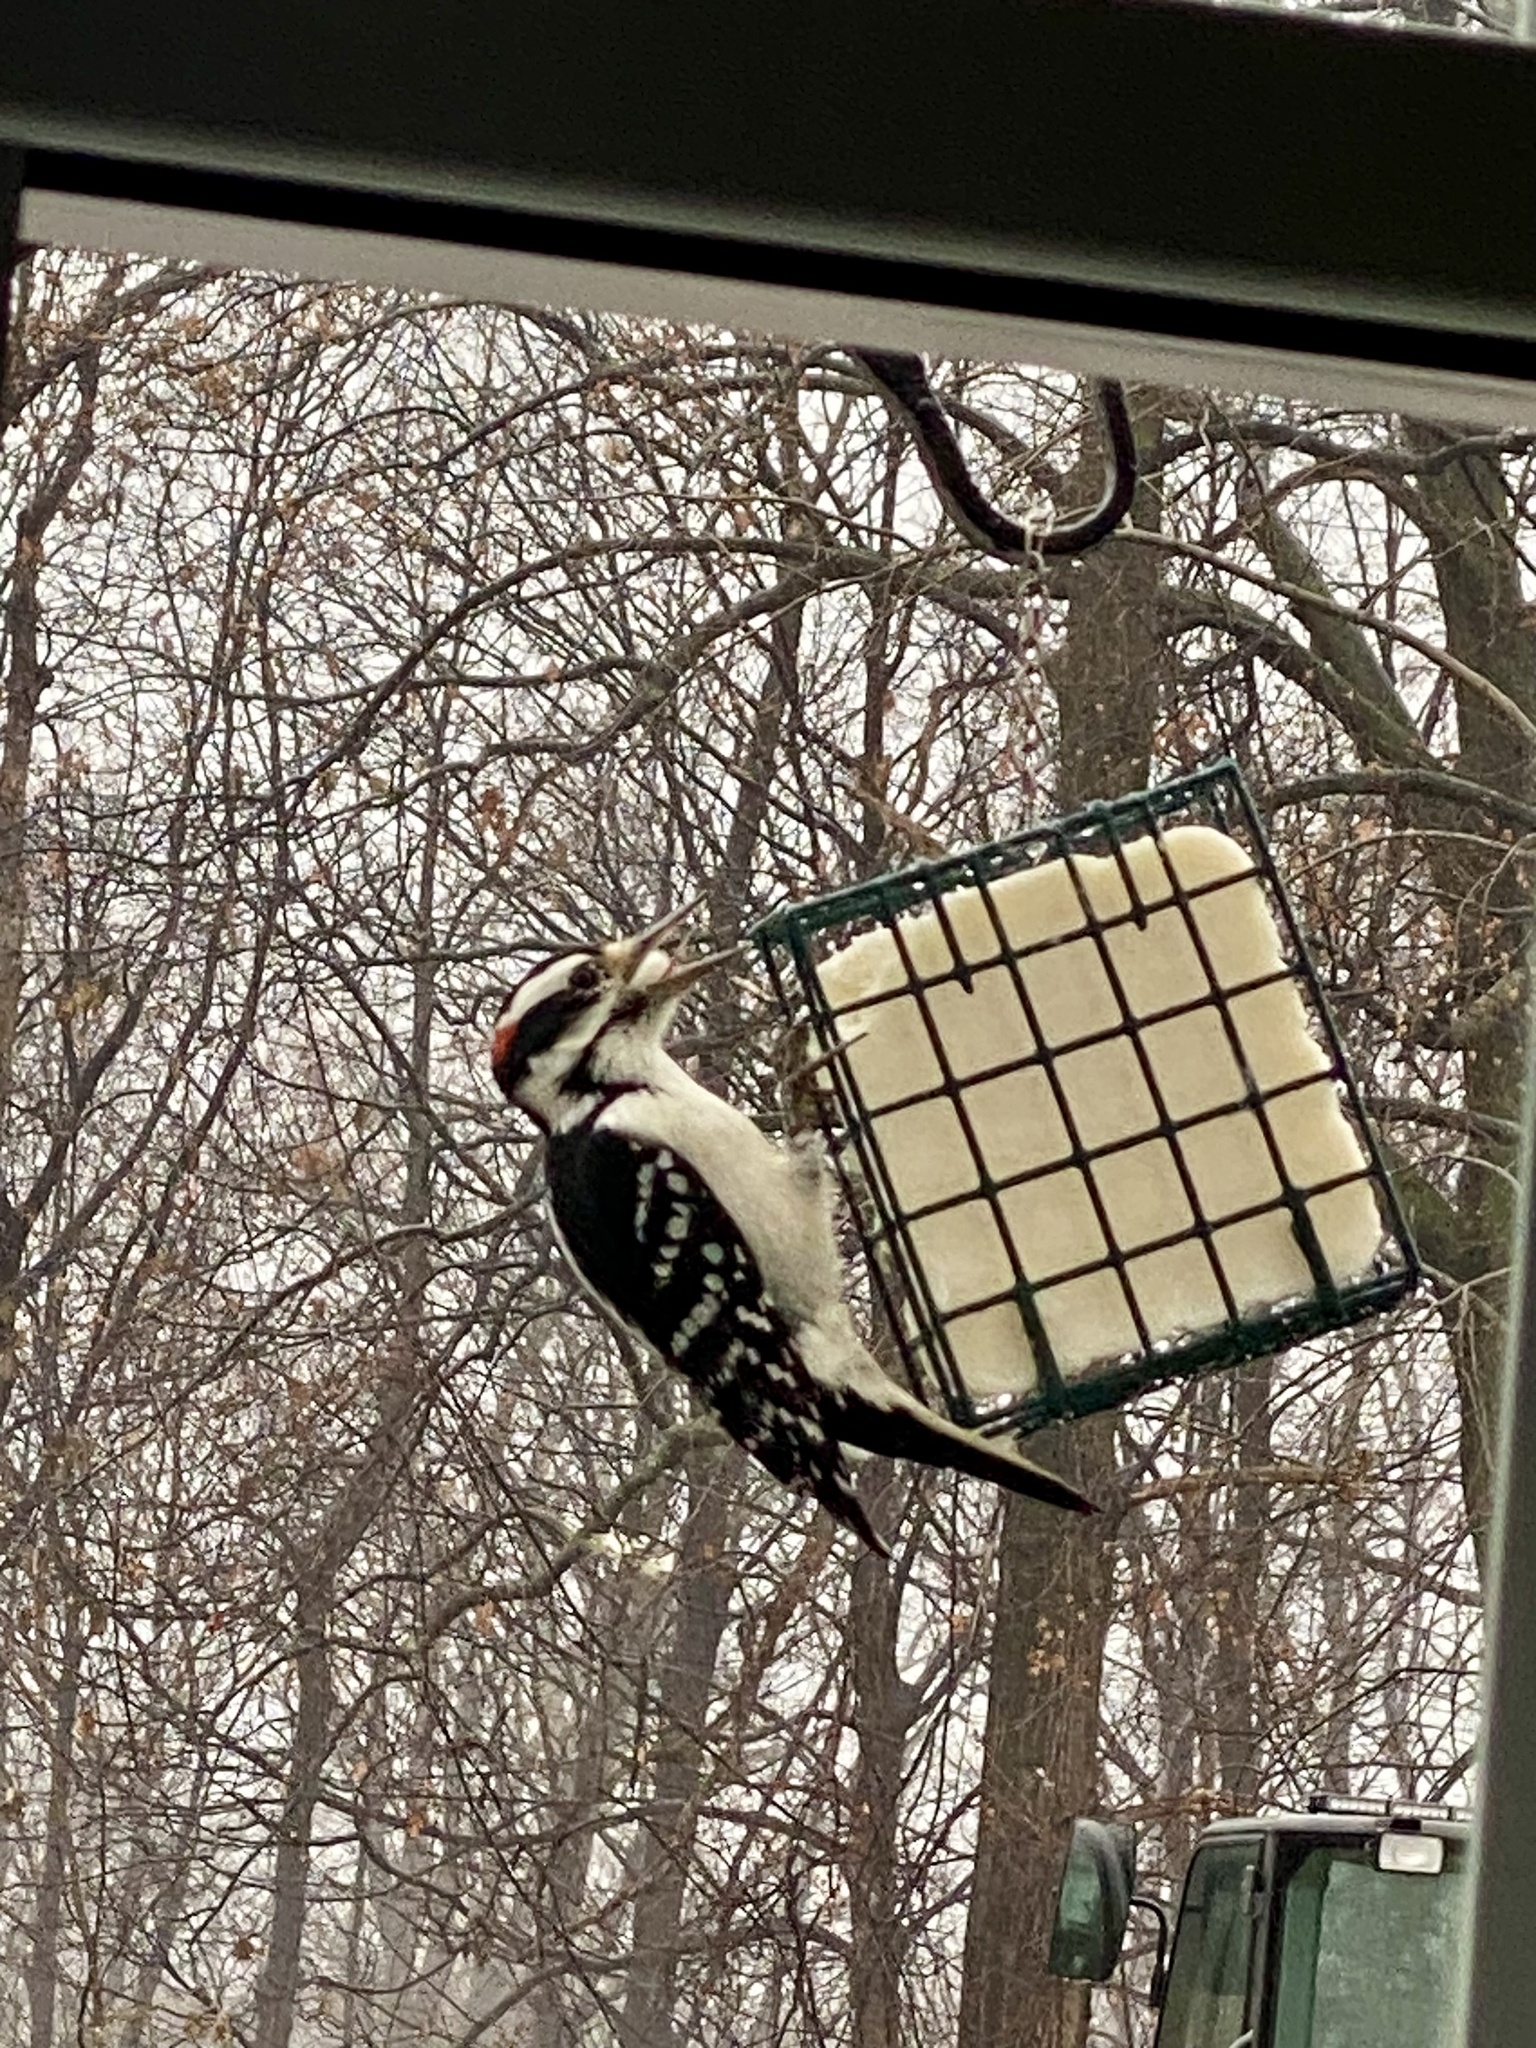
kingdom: Animalia
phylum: Chordata
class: Aves
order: Piciformes
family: Picidae
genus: Leuconotopicus
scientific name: Leuconotopicus villosus
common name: Hairy woodpecker
